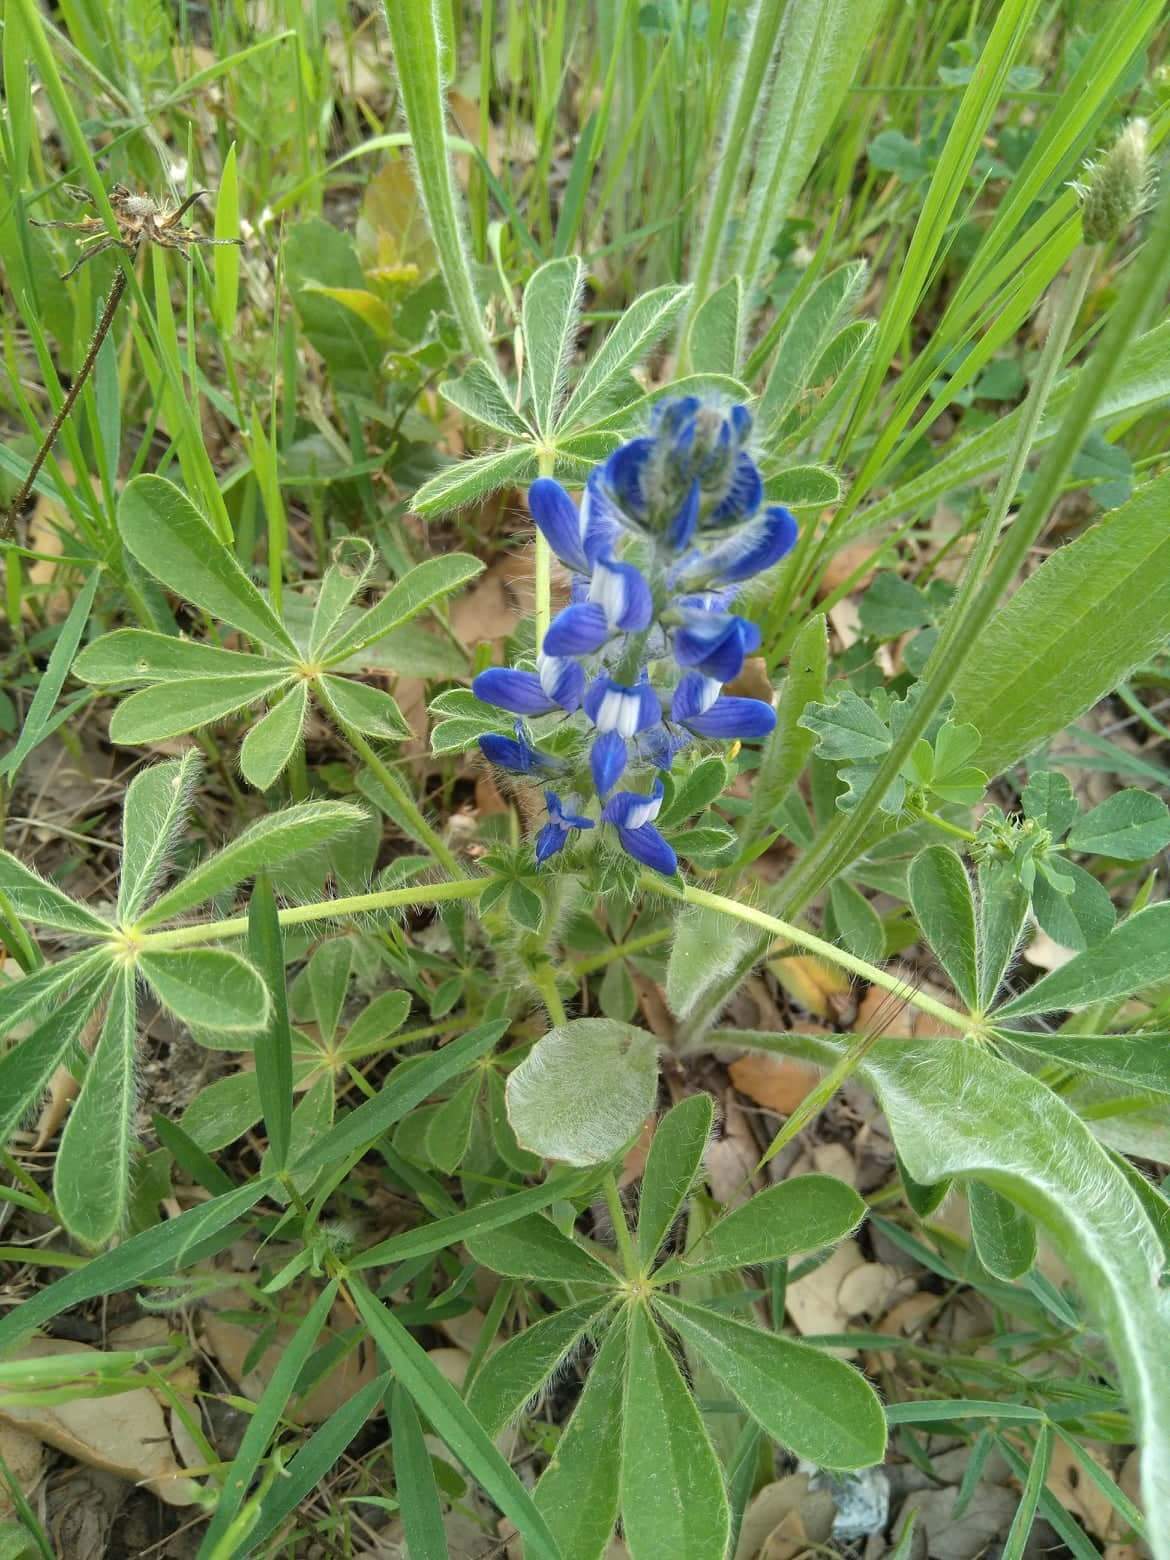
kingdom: Plantae
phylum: Tracheophyta
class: Magnoliopsida
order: Fabales
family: Fabaceae
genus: Lupinus
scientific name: Lupinus gussoneanus
